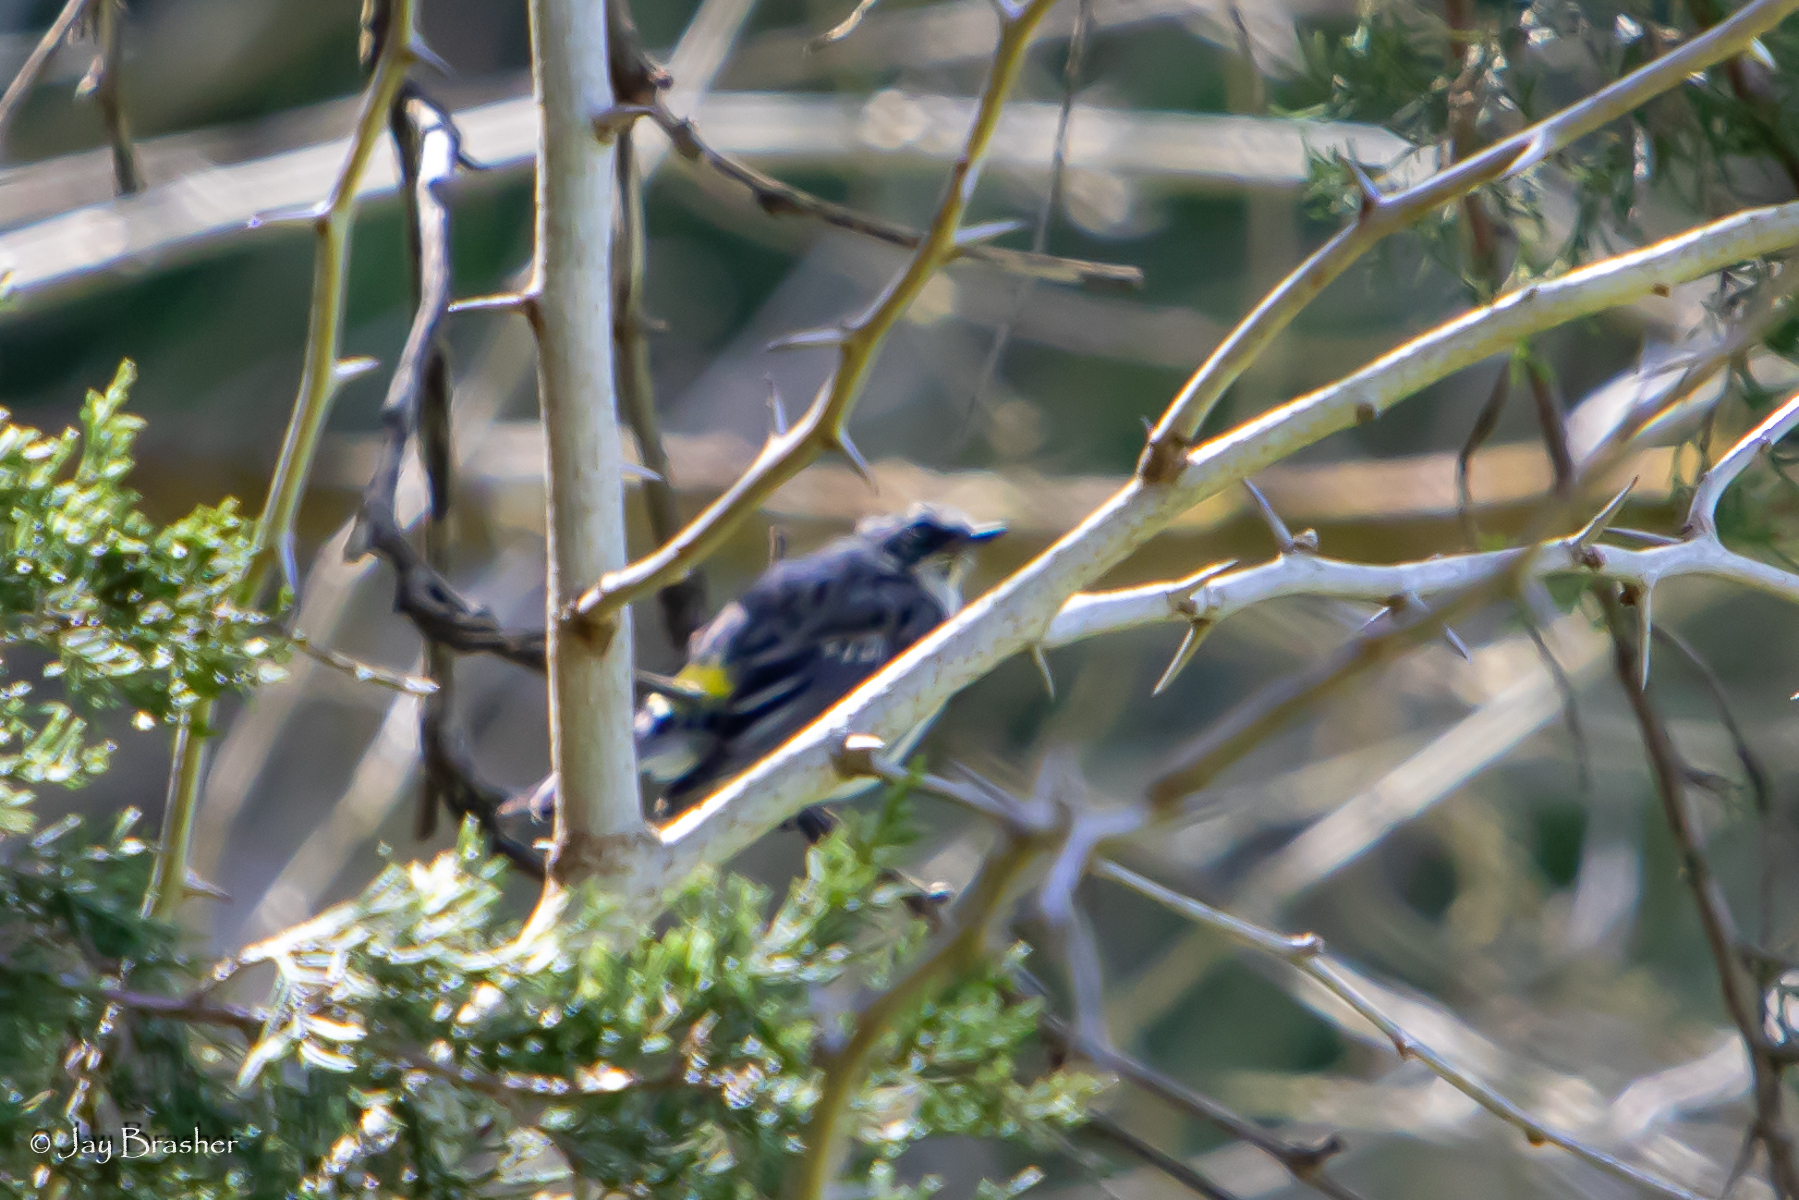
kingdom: Animalia
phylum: Chordata
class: Aves
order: Passeriformes
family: Parulidae
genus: Setophaga
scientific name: Setophaga coronata
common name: Myrtle warbler
